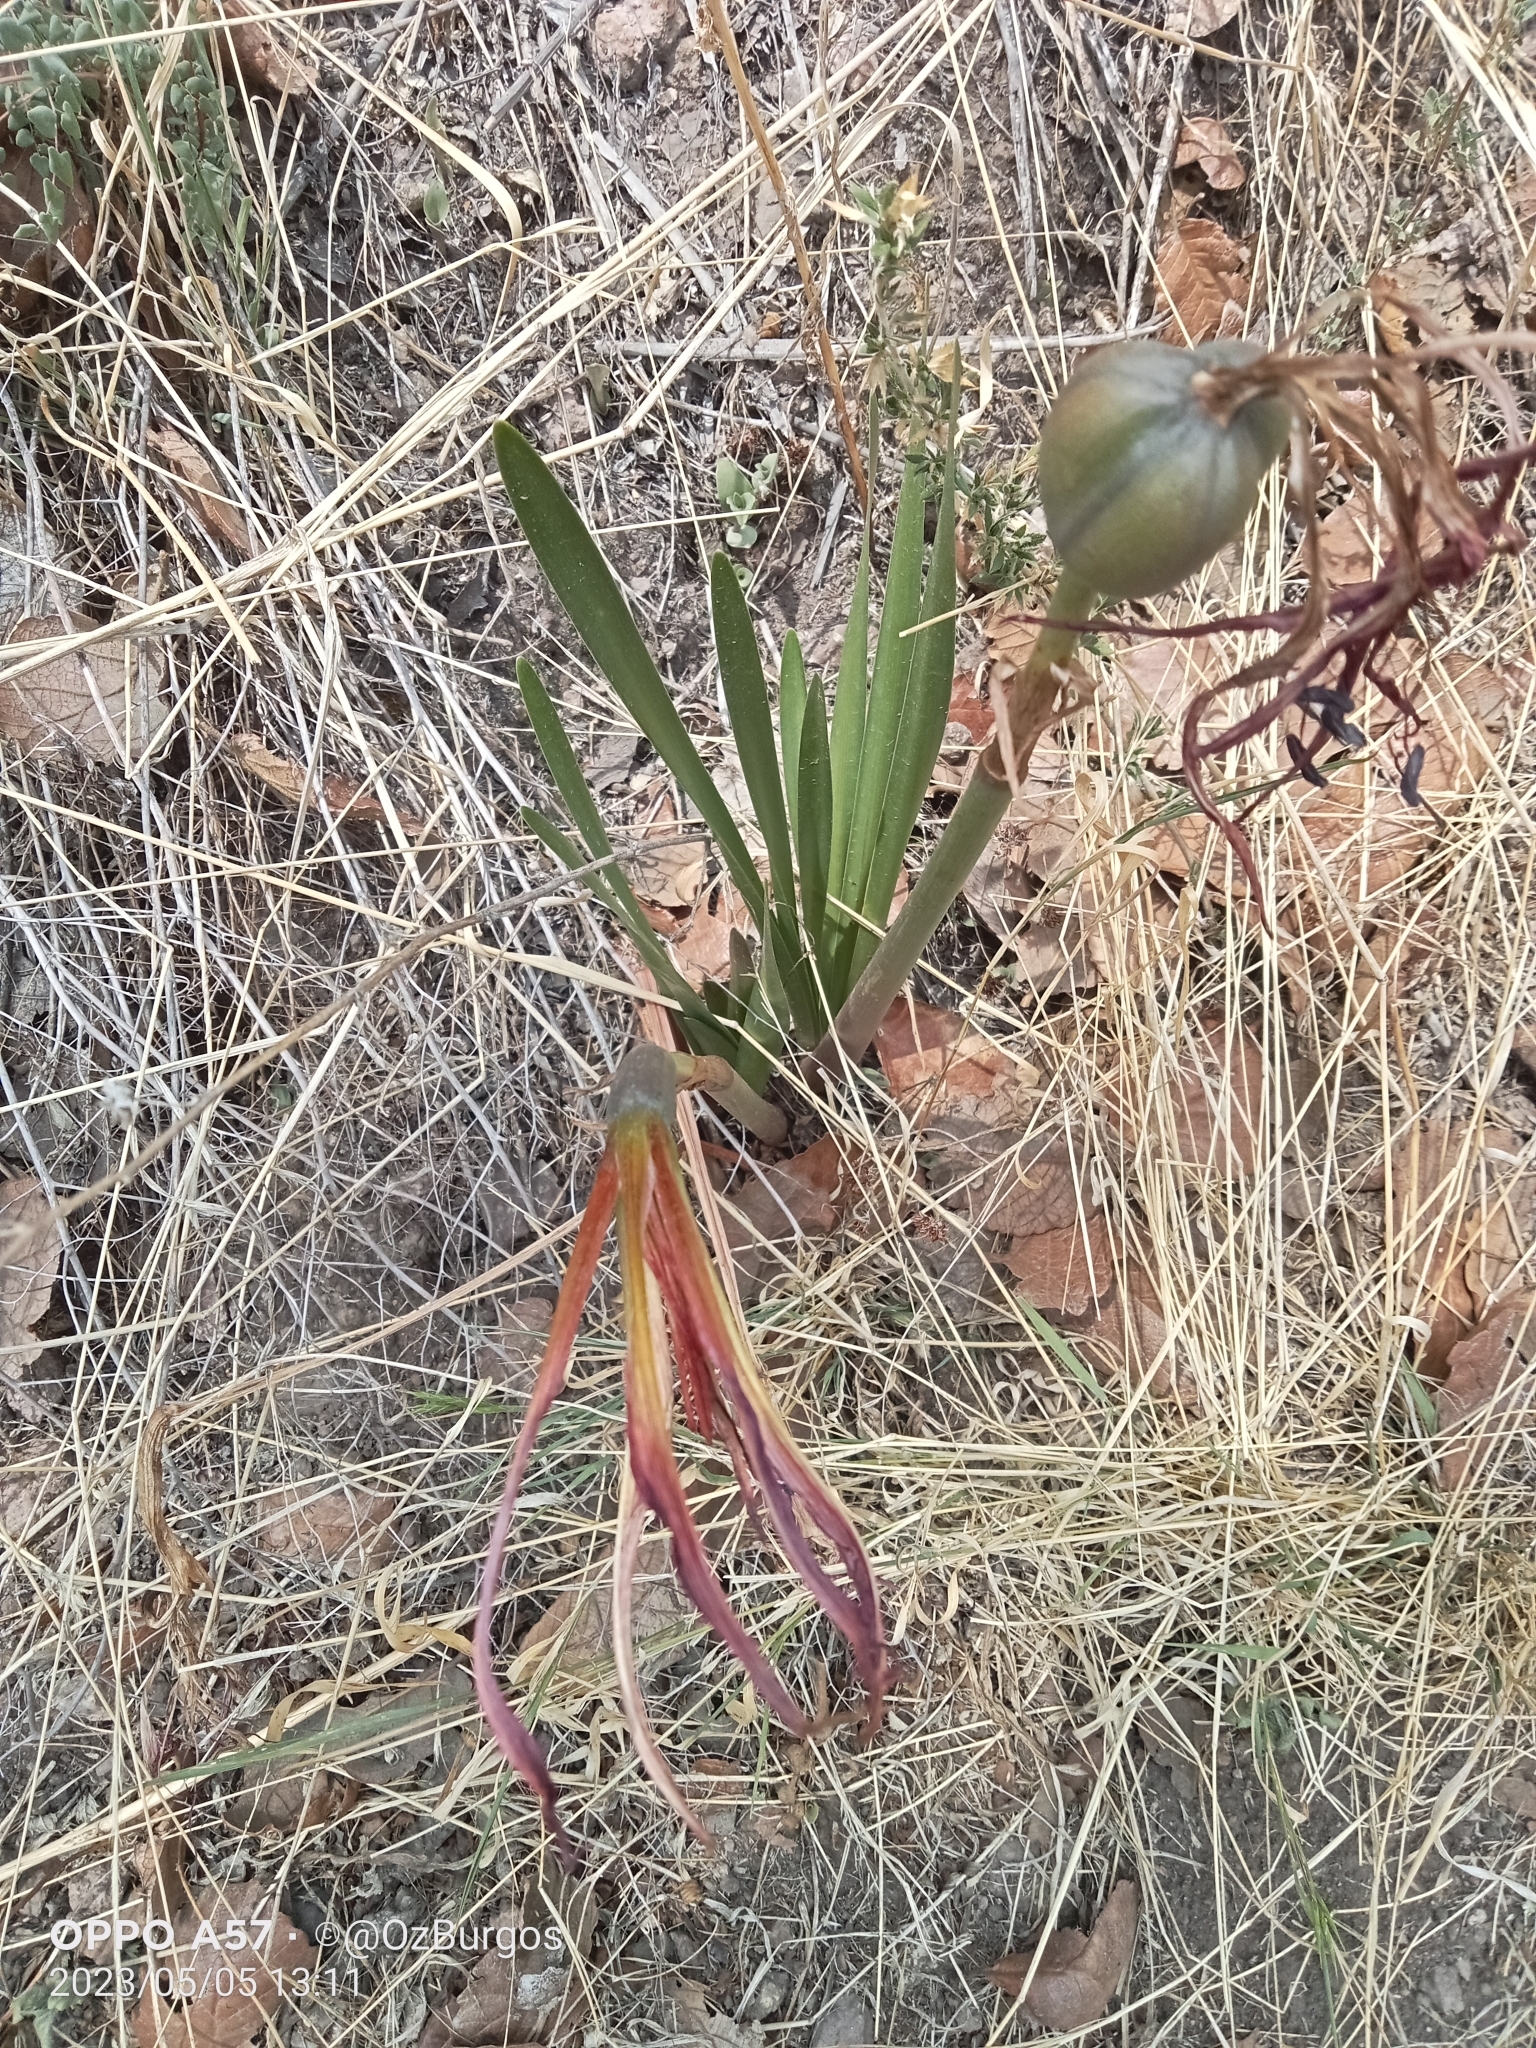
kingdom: Plantae
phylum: Tracheophyta
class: Liliopsida
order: Asparagales
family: Amaryllidaceae
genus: Sprekelia
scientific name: Sprekelia formosissima
